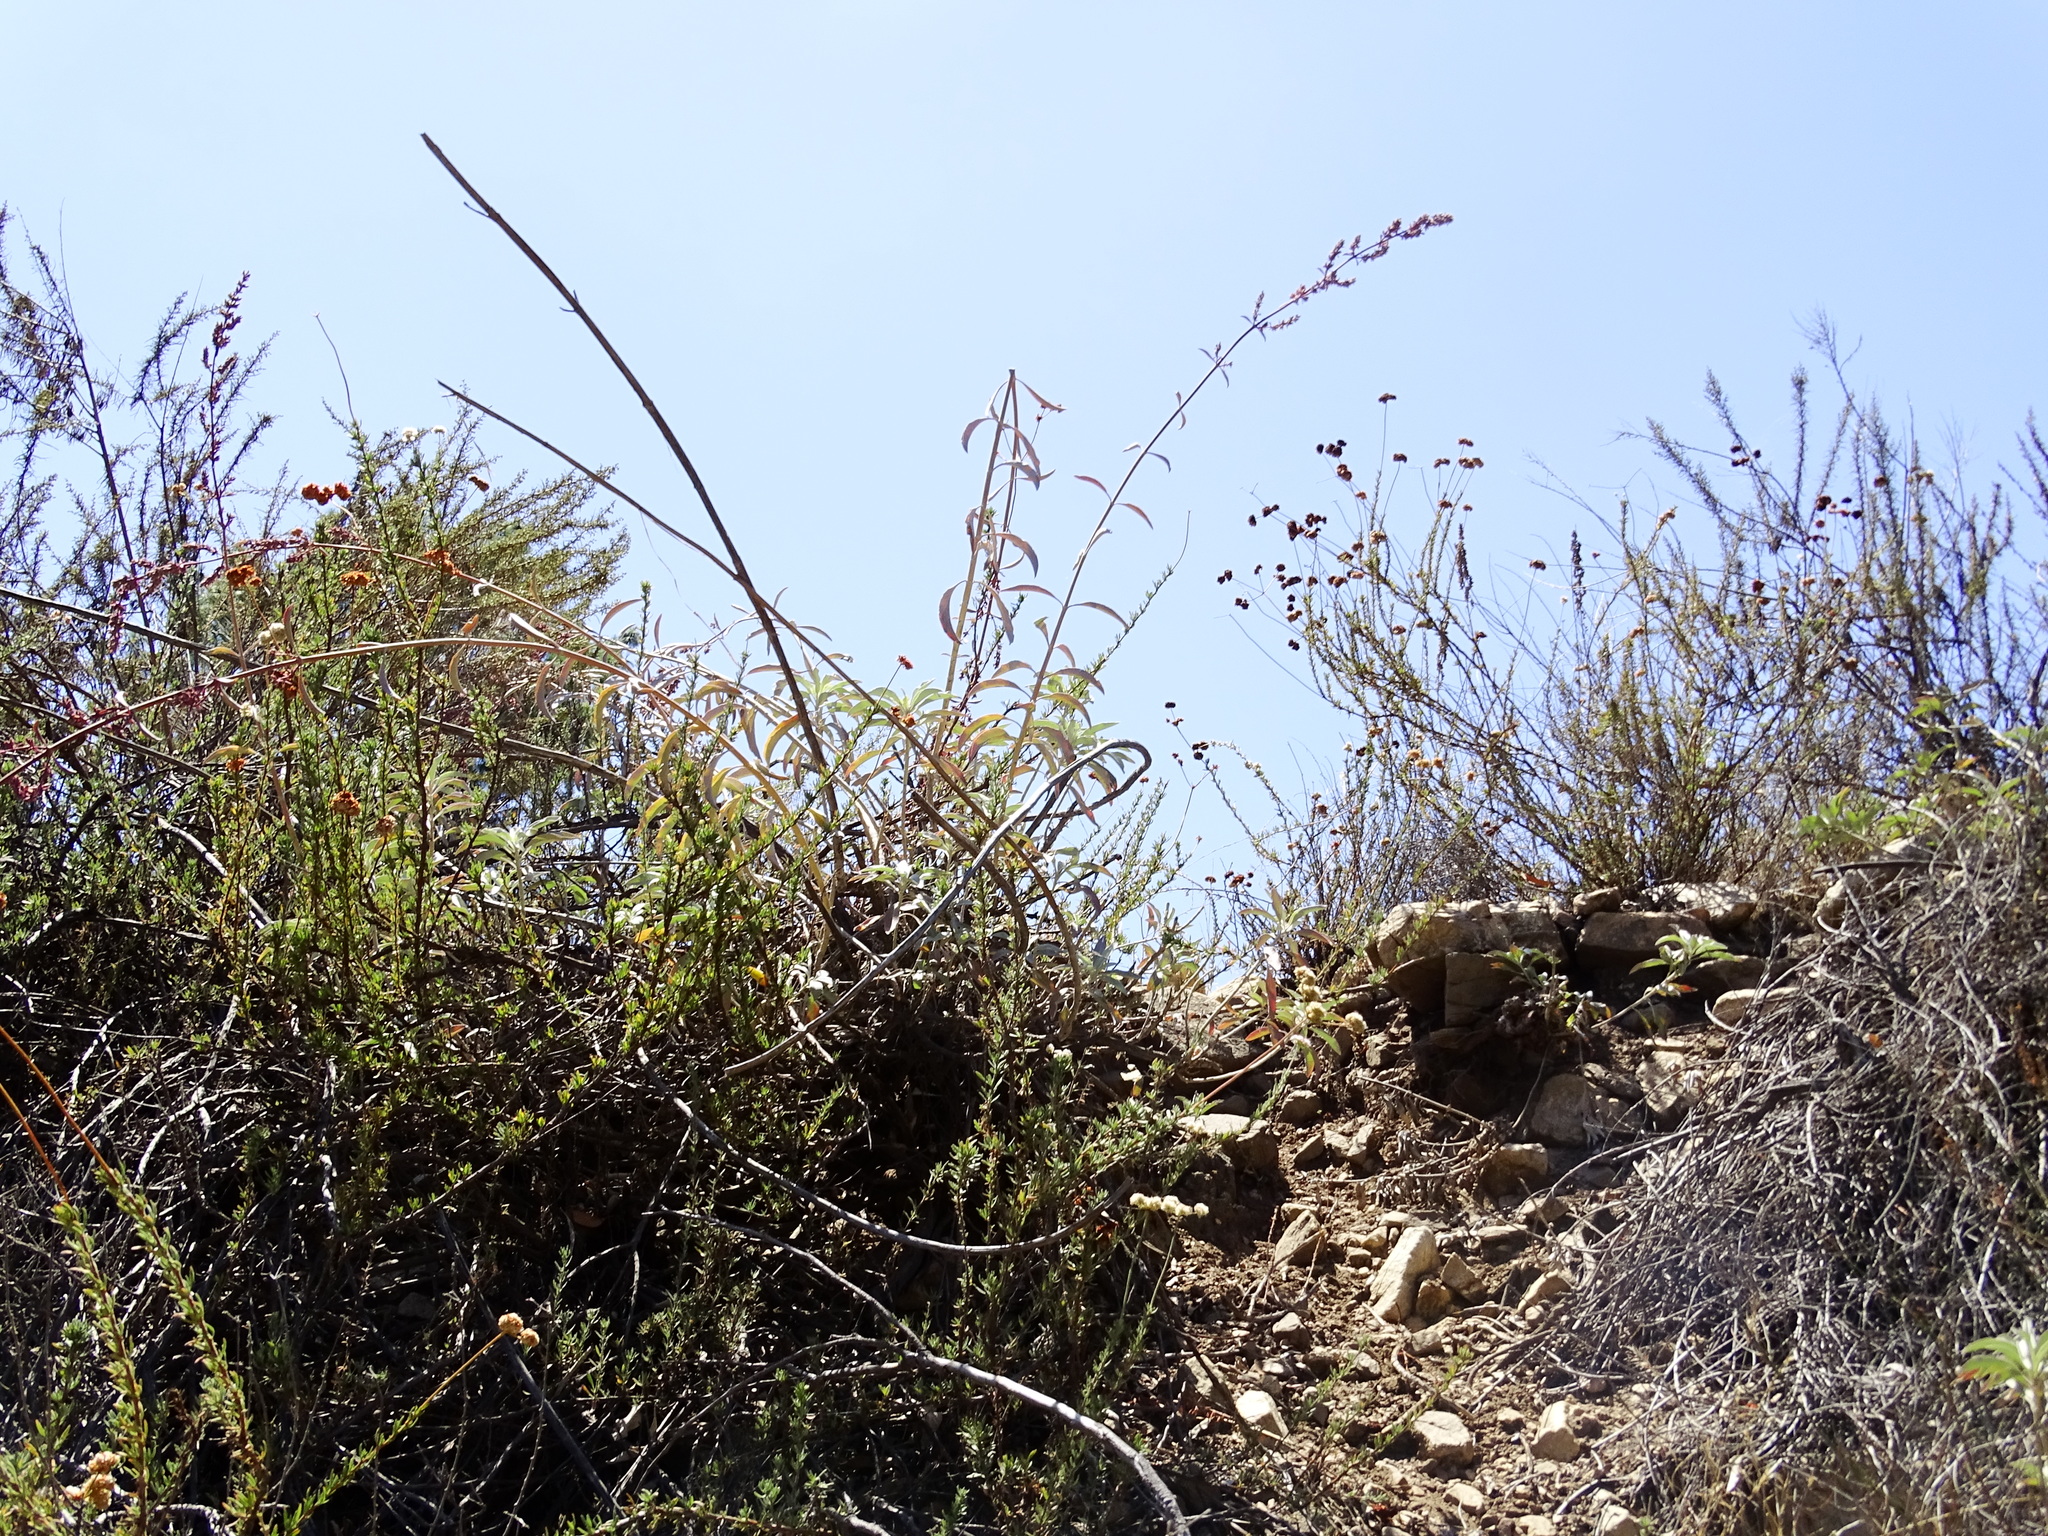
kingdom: Plantae
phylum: Tracheophyta
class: Magnoliopsida
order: Lamiales
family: Lamiaceae
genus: Salvia
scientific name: Salvia apiana
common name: White sage
